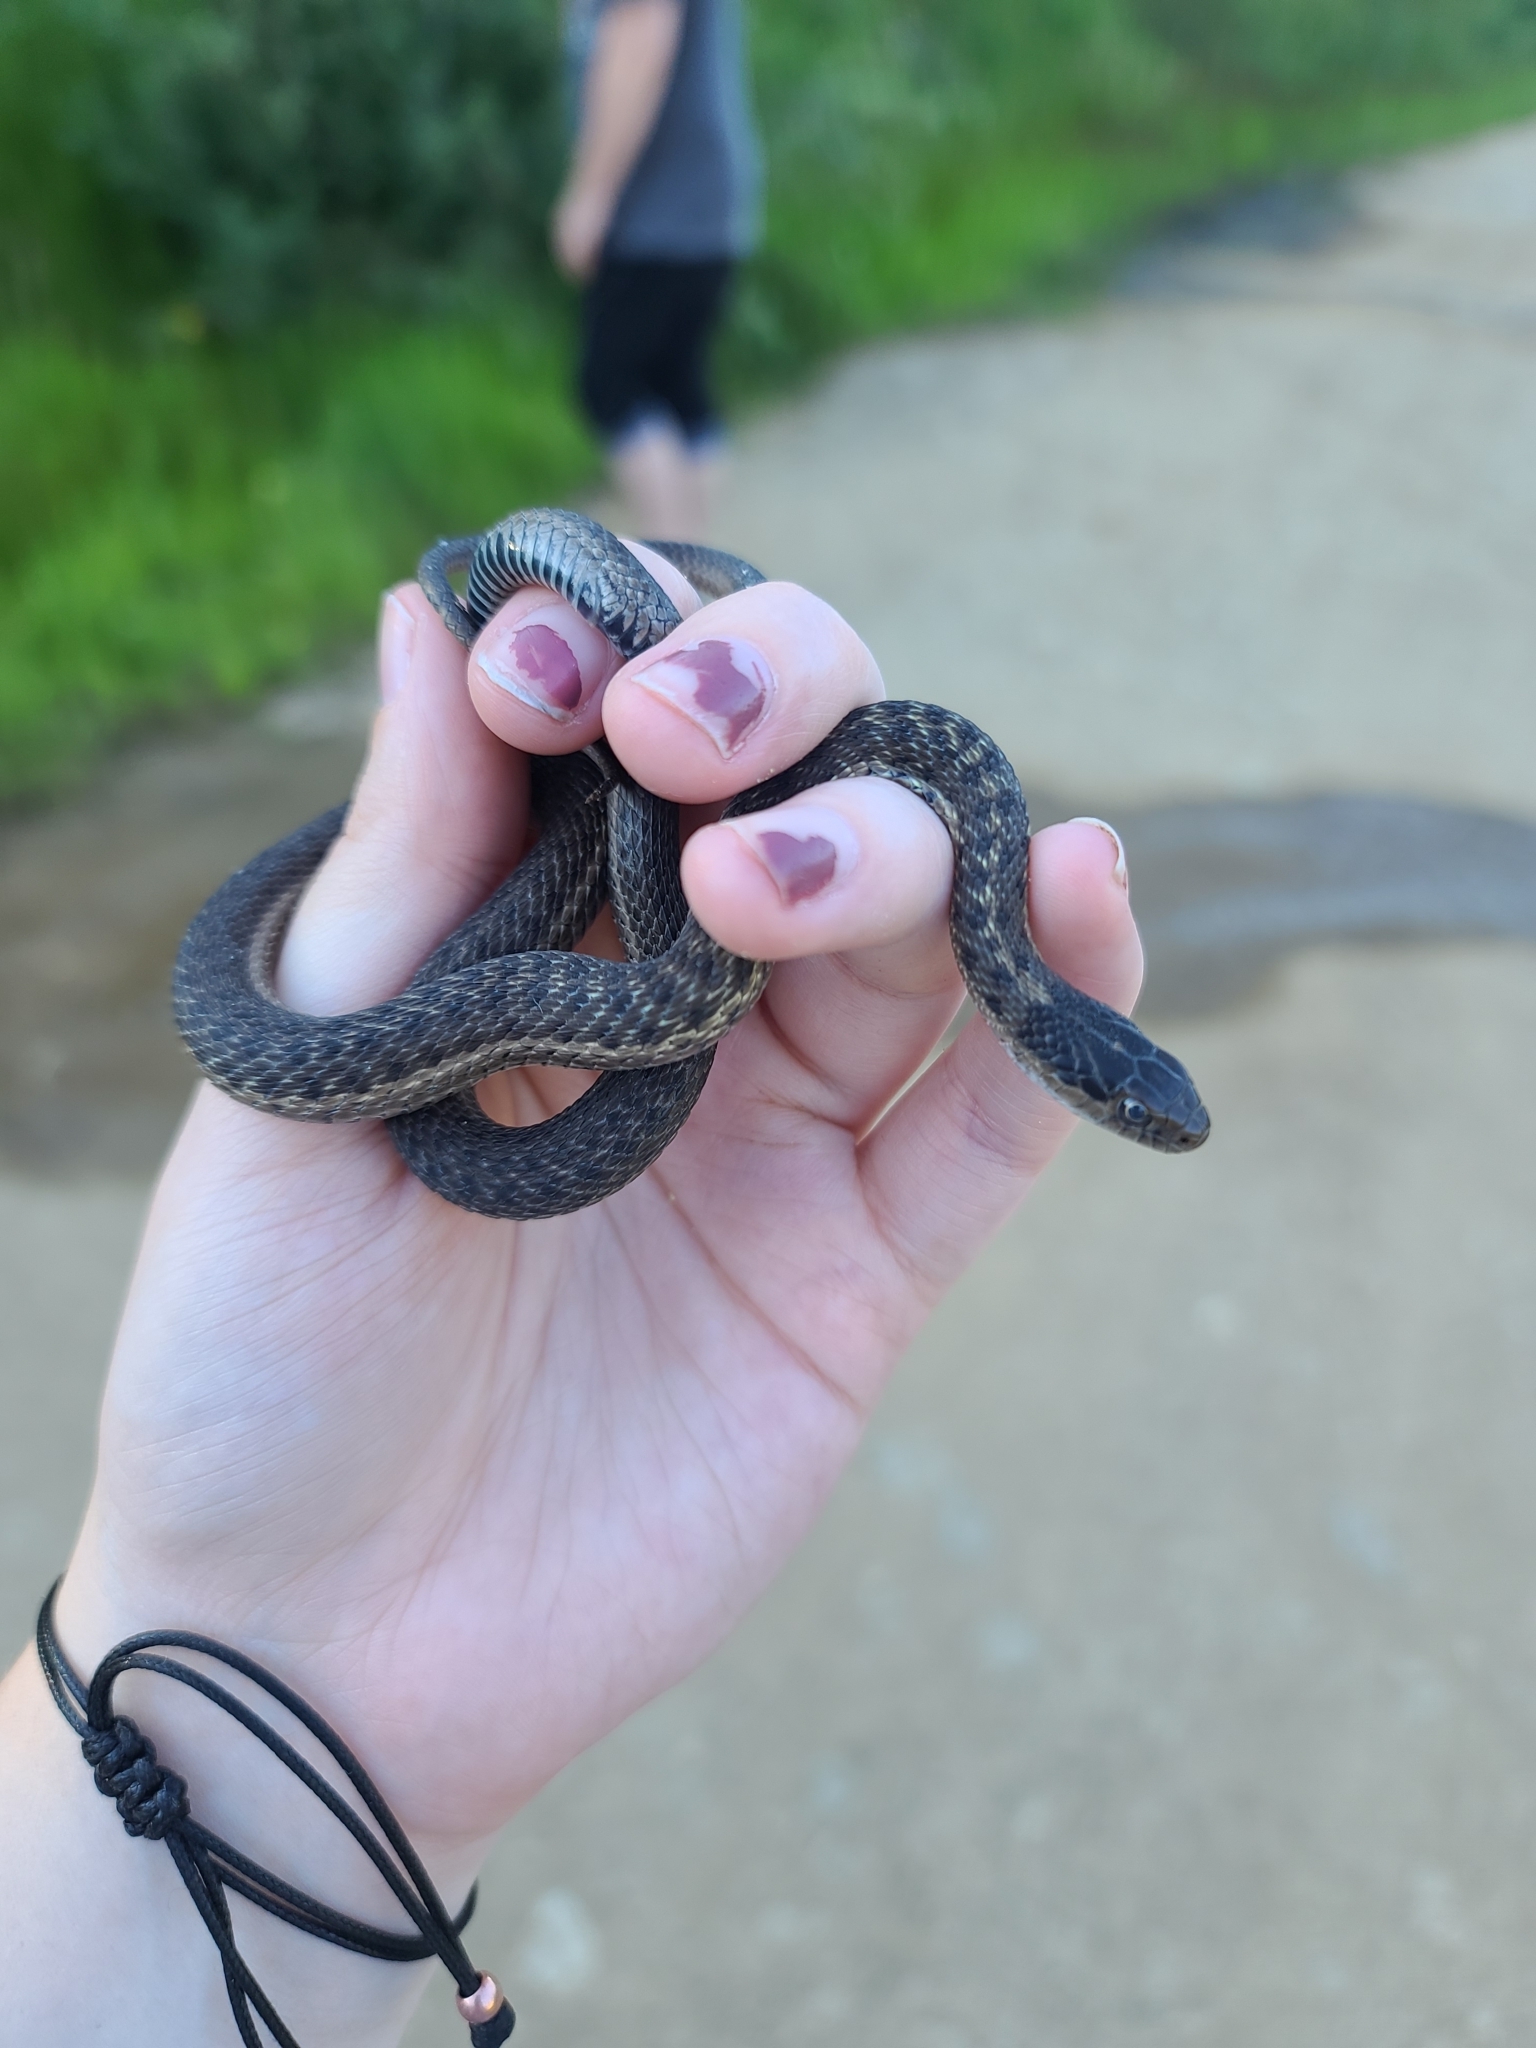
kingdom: Animalia
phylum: Chordata
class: Squamata
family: Colubridae
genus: Thamnophis
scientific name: Thamnophis elegans
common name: Western terrestrial garter snake
